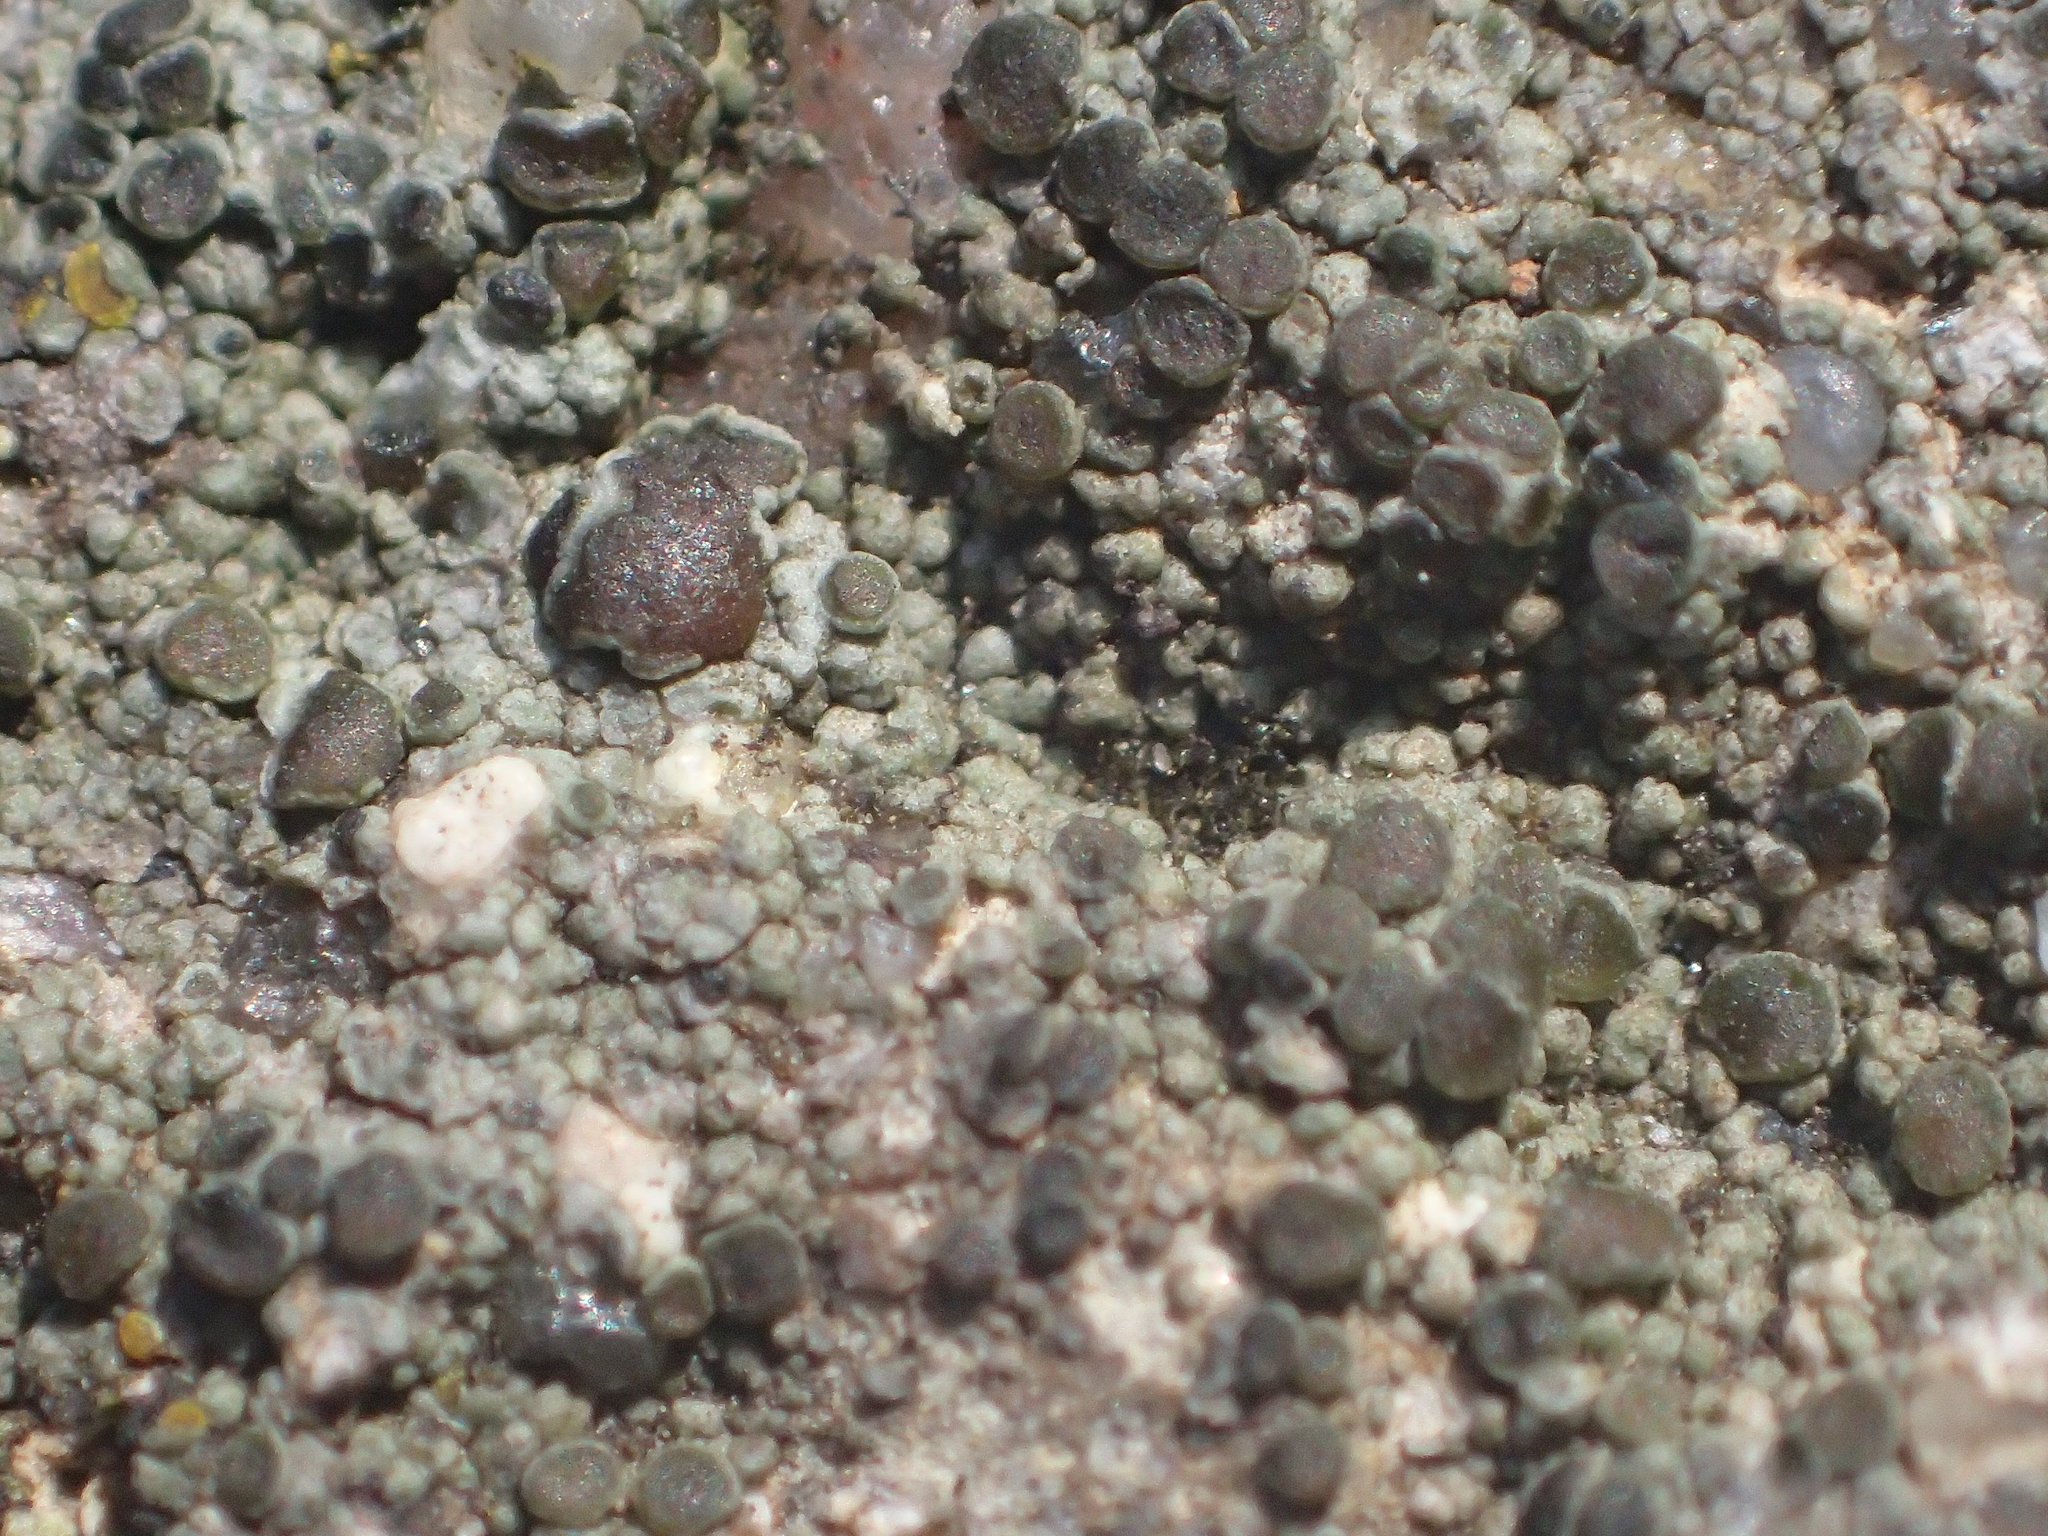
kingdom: Fungi
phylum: Ascomycota
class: Lecanoromycetes
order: Teloschistales
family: Teloschistaceae
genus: Pyrenodesmia
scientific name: Pyrenodesmia atroalba
